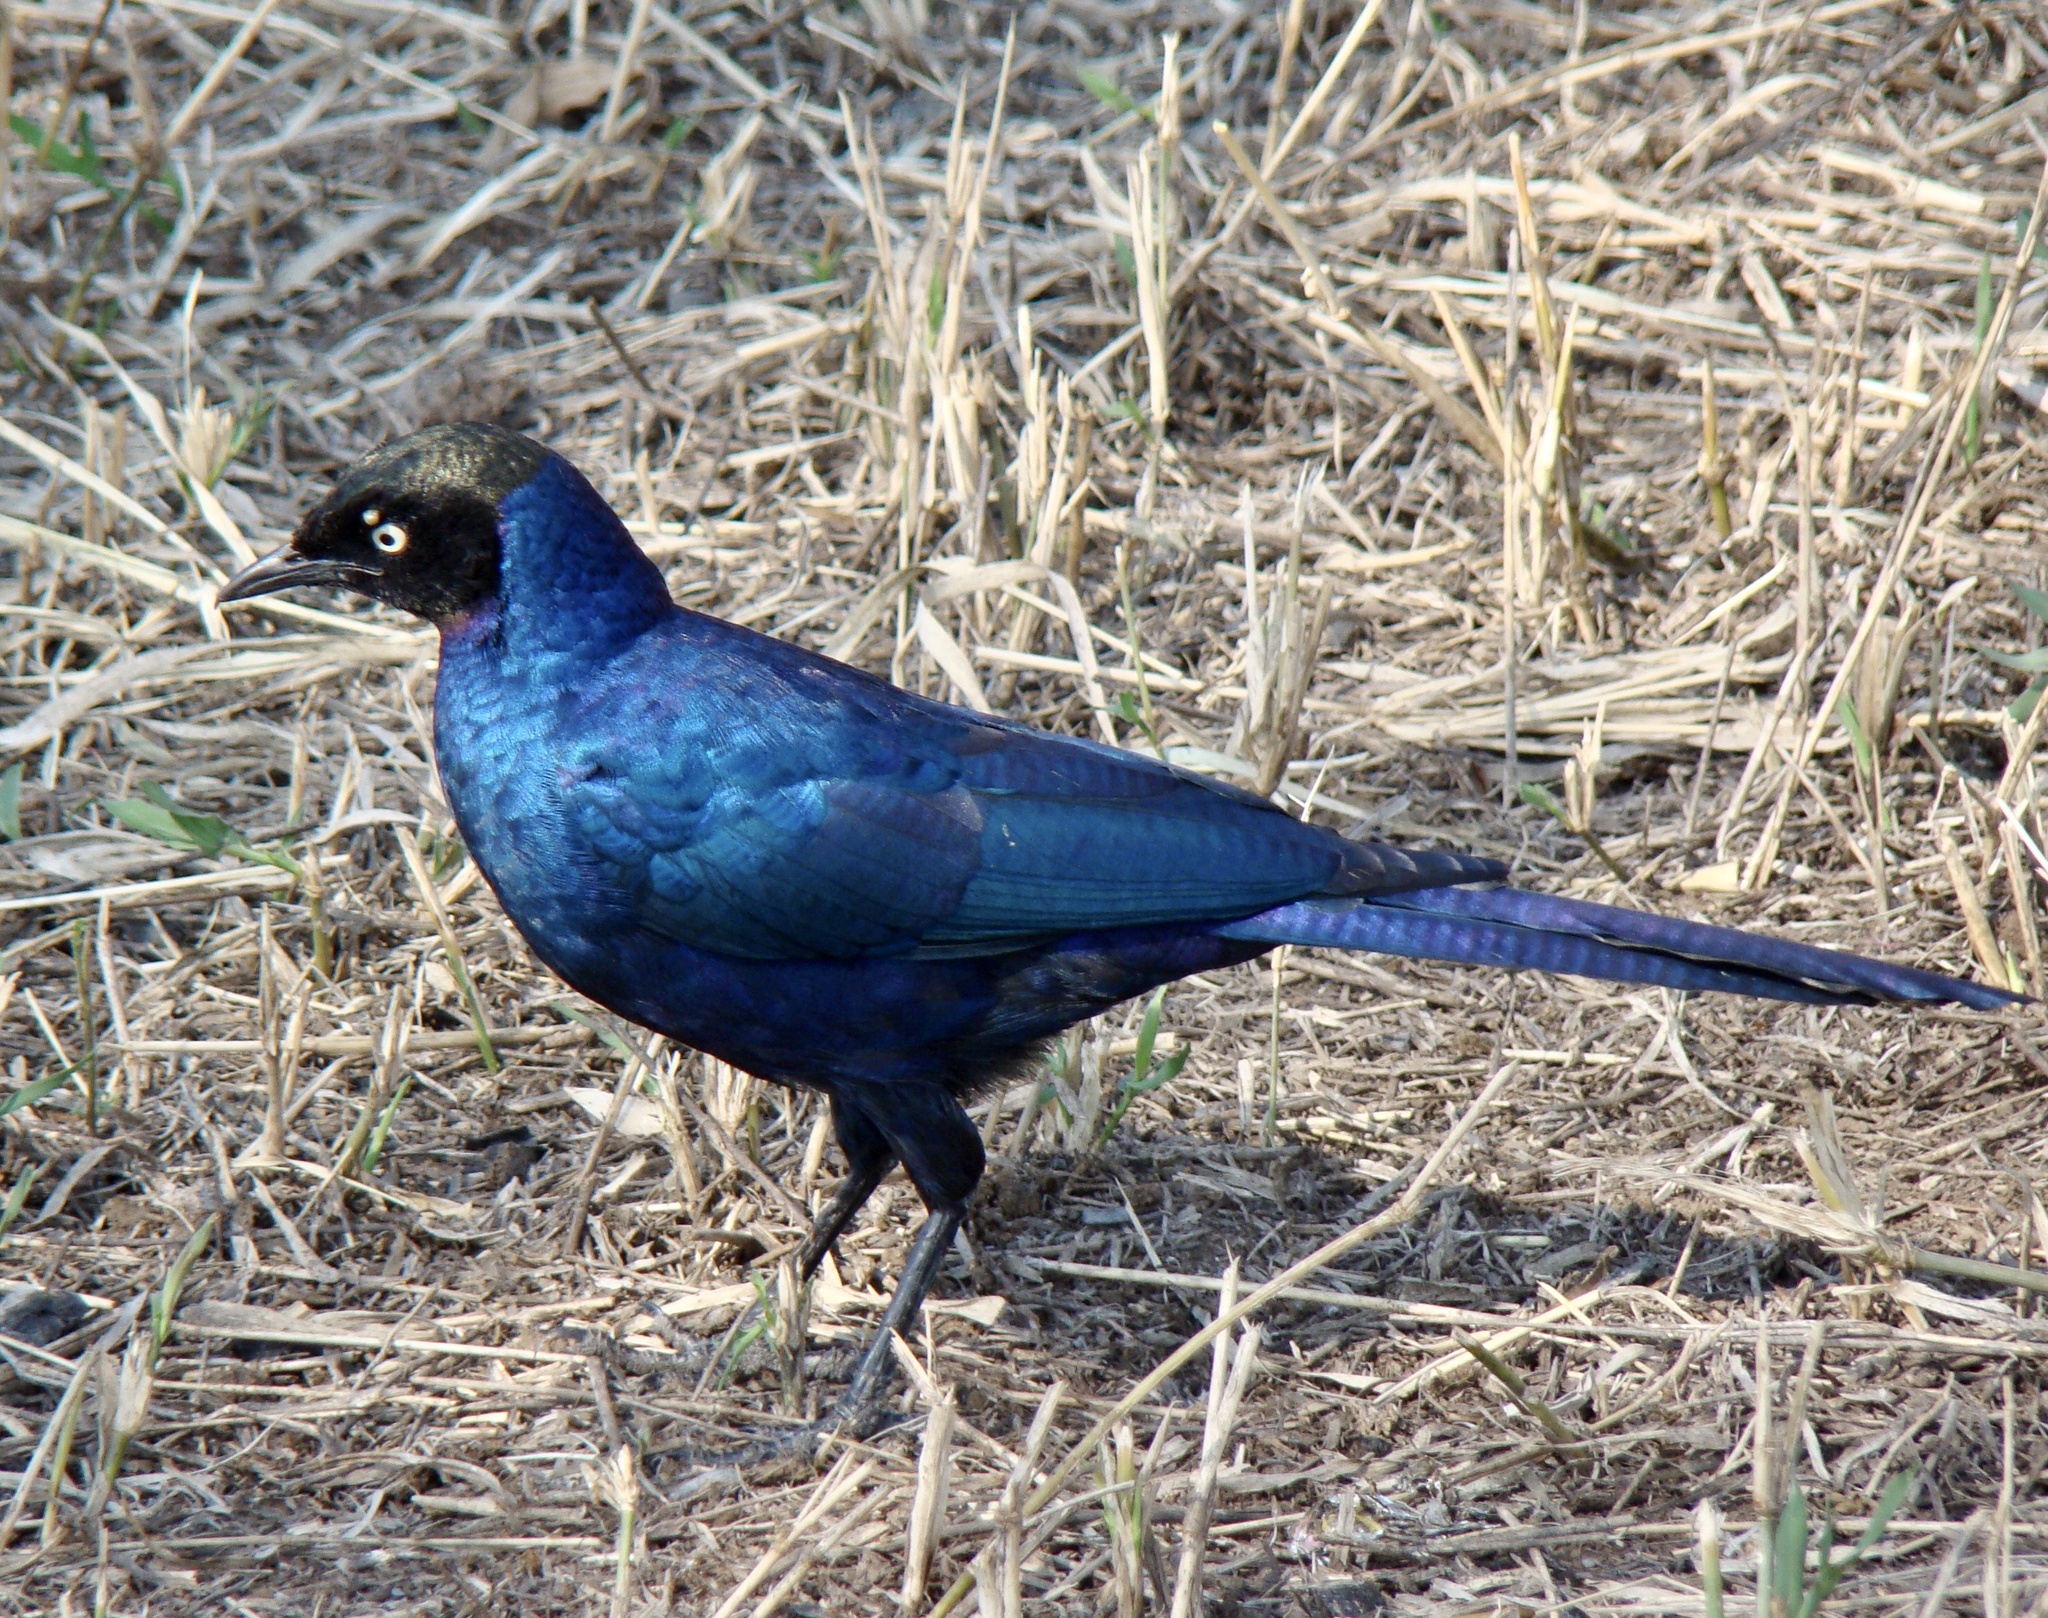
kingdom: Animalia
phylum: Chordata
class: Aves
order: Passeriformes
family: Sturnidae
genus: Lamprotornis
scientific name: Lamprotornis purpuroptera
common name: Rüppell's starling
